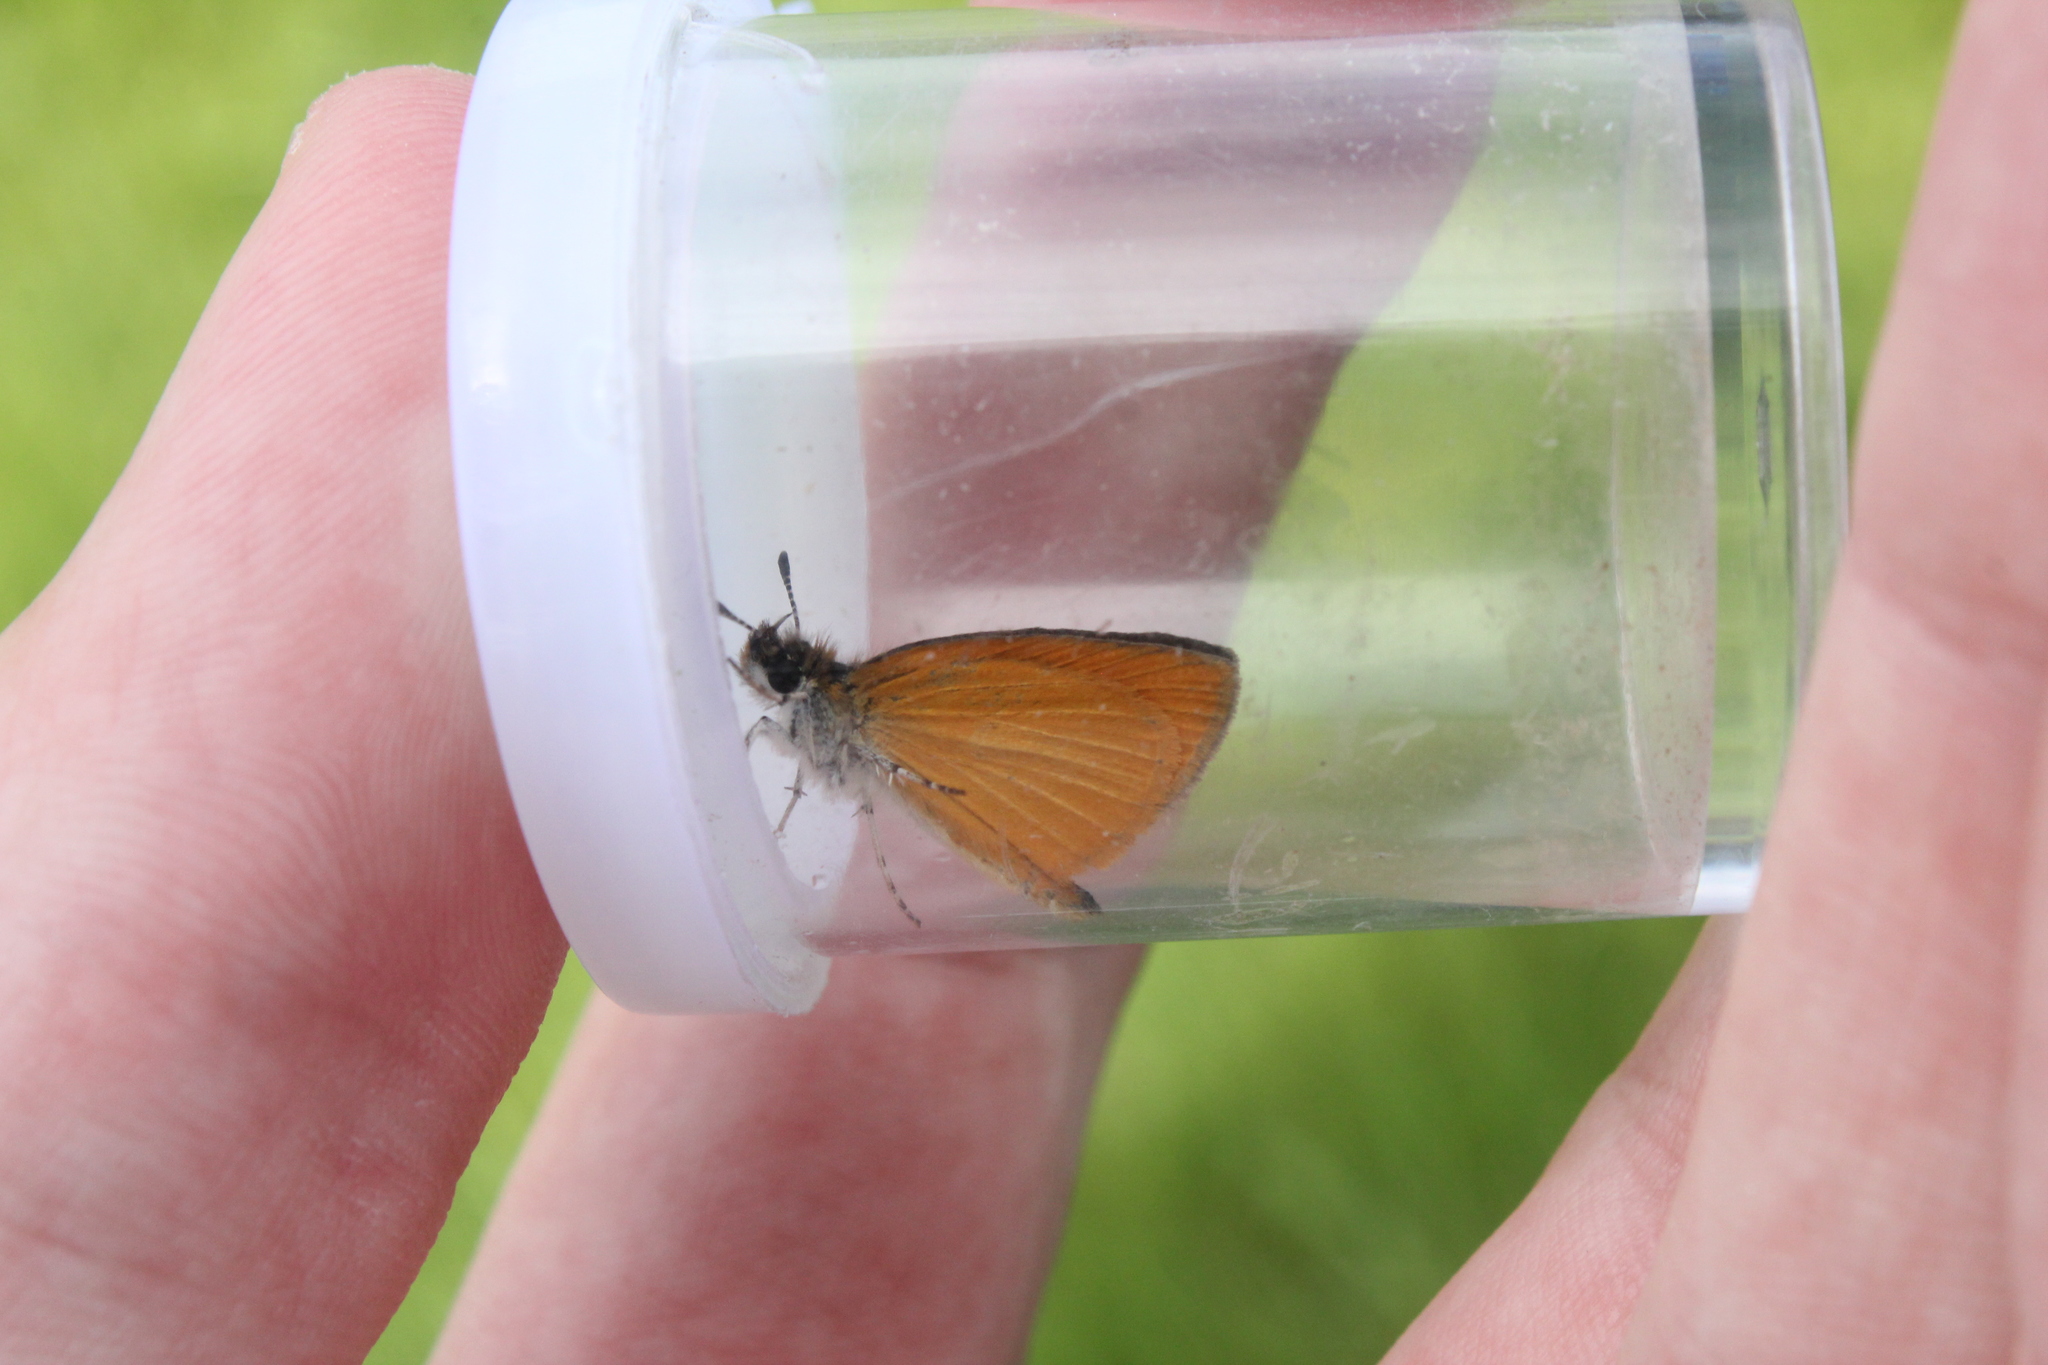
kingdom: Animalia
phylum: Arthropoda
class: Insecta
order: Lepidoptera
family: Hesperiidae
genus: Ancyloxypha
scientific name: Ancyloxypha numitor
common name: Least skipper
